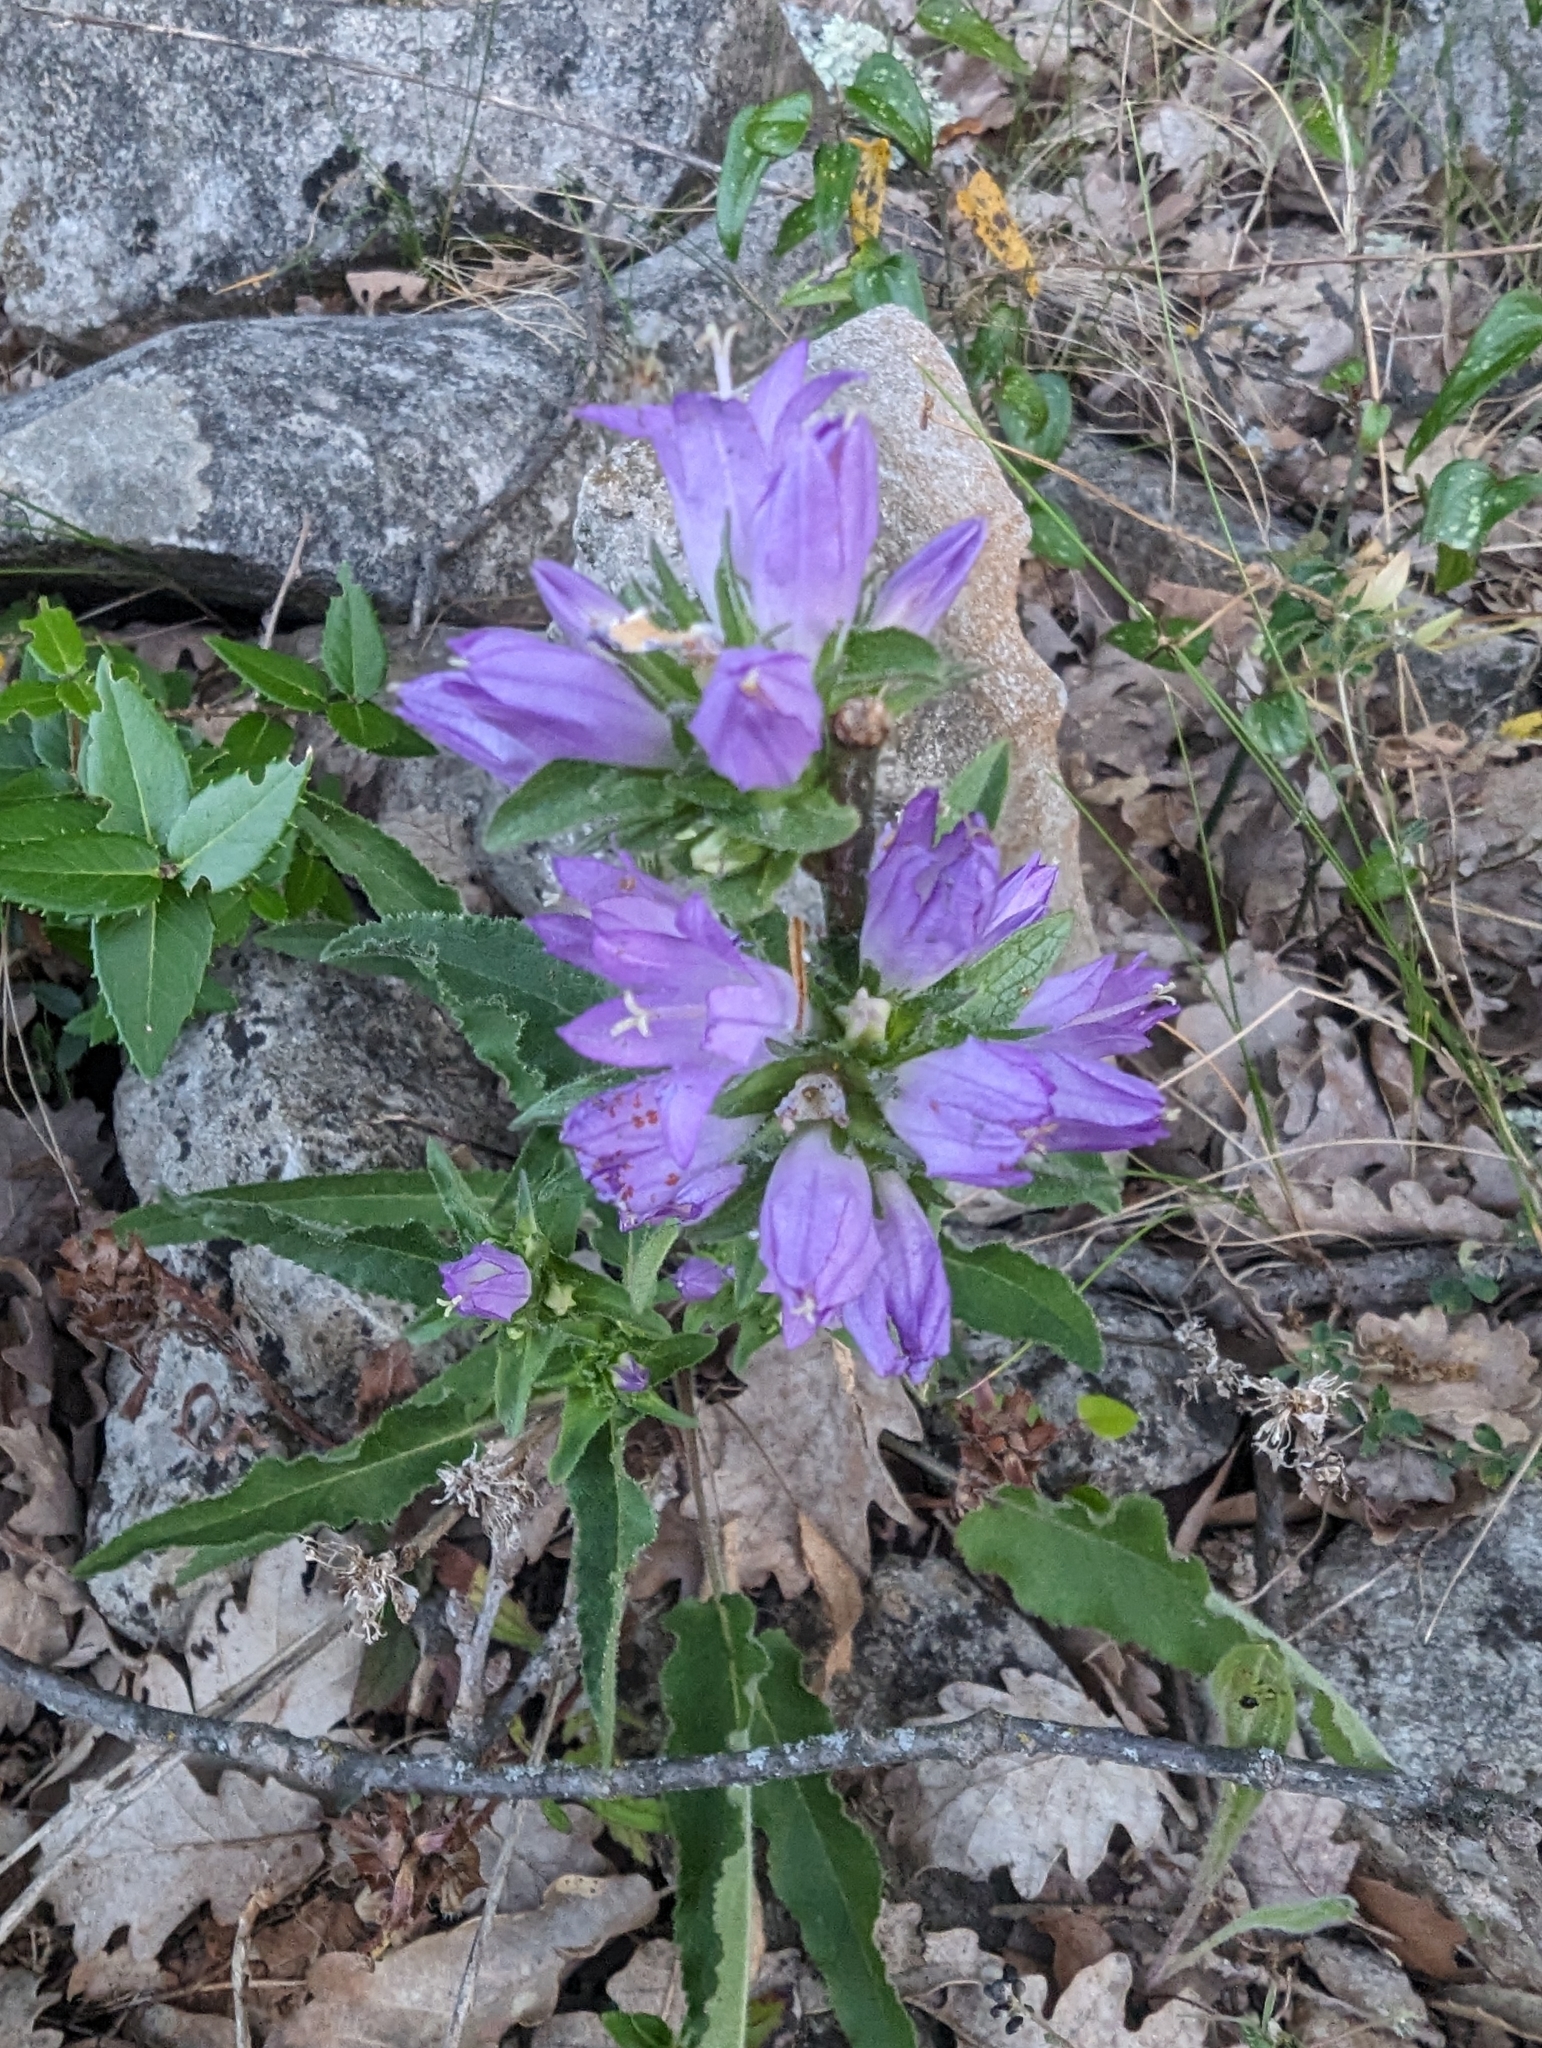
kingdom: Plantae
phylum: Tracheophyta
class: Magnoliopsida
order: Asterales
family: Campanulaceae
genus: Campanula
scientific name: Campanula glomerata
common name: Clustered bellflower
